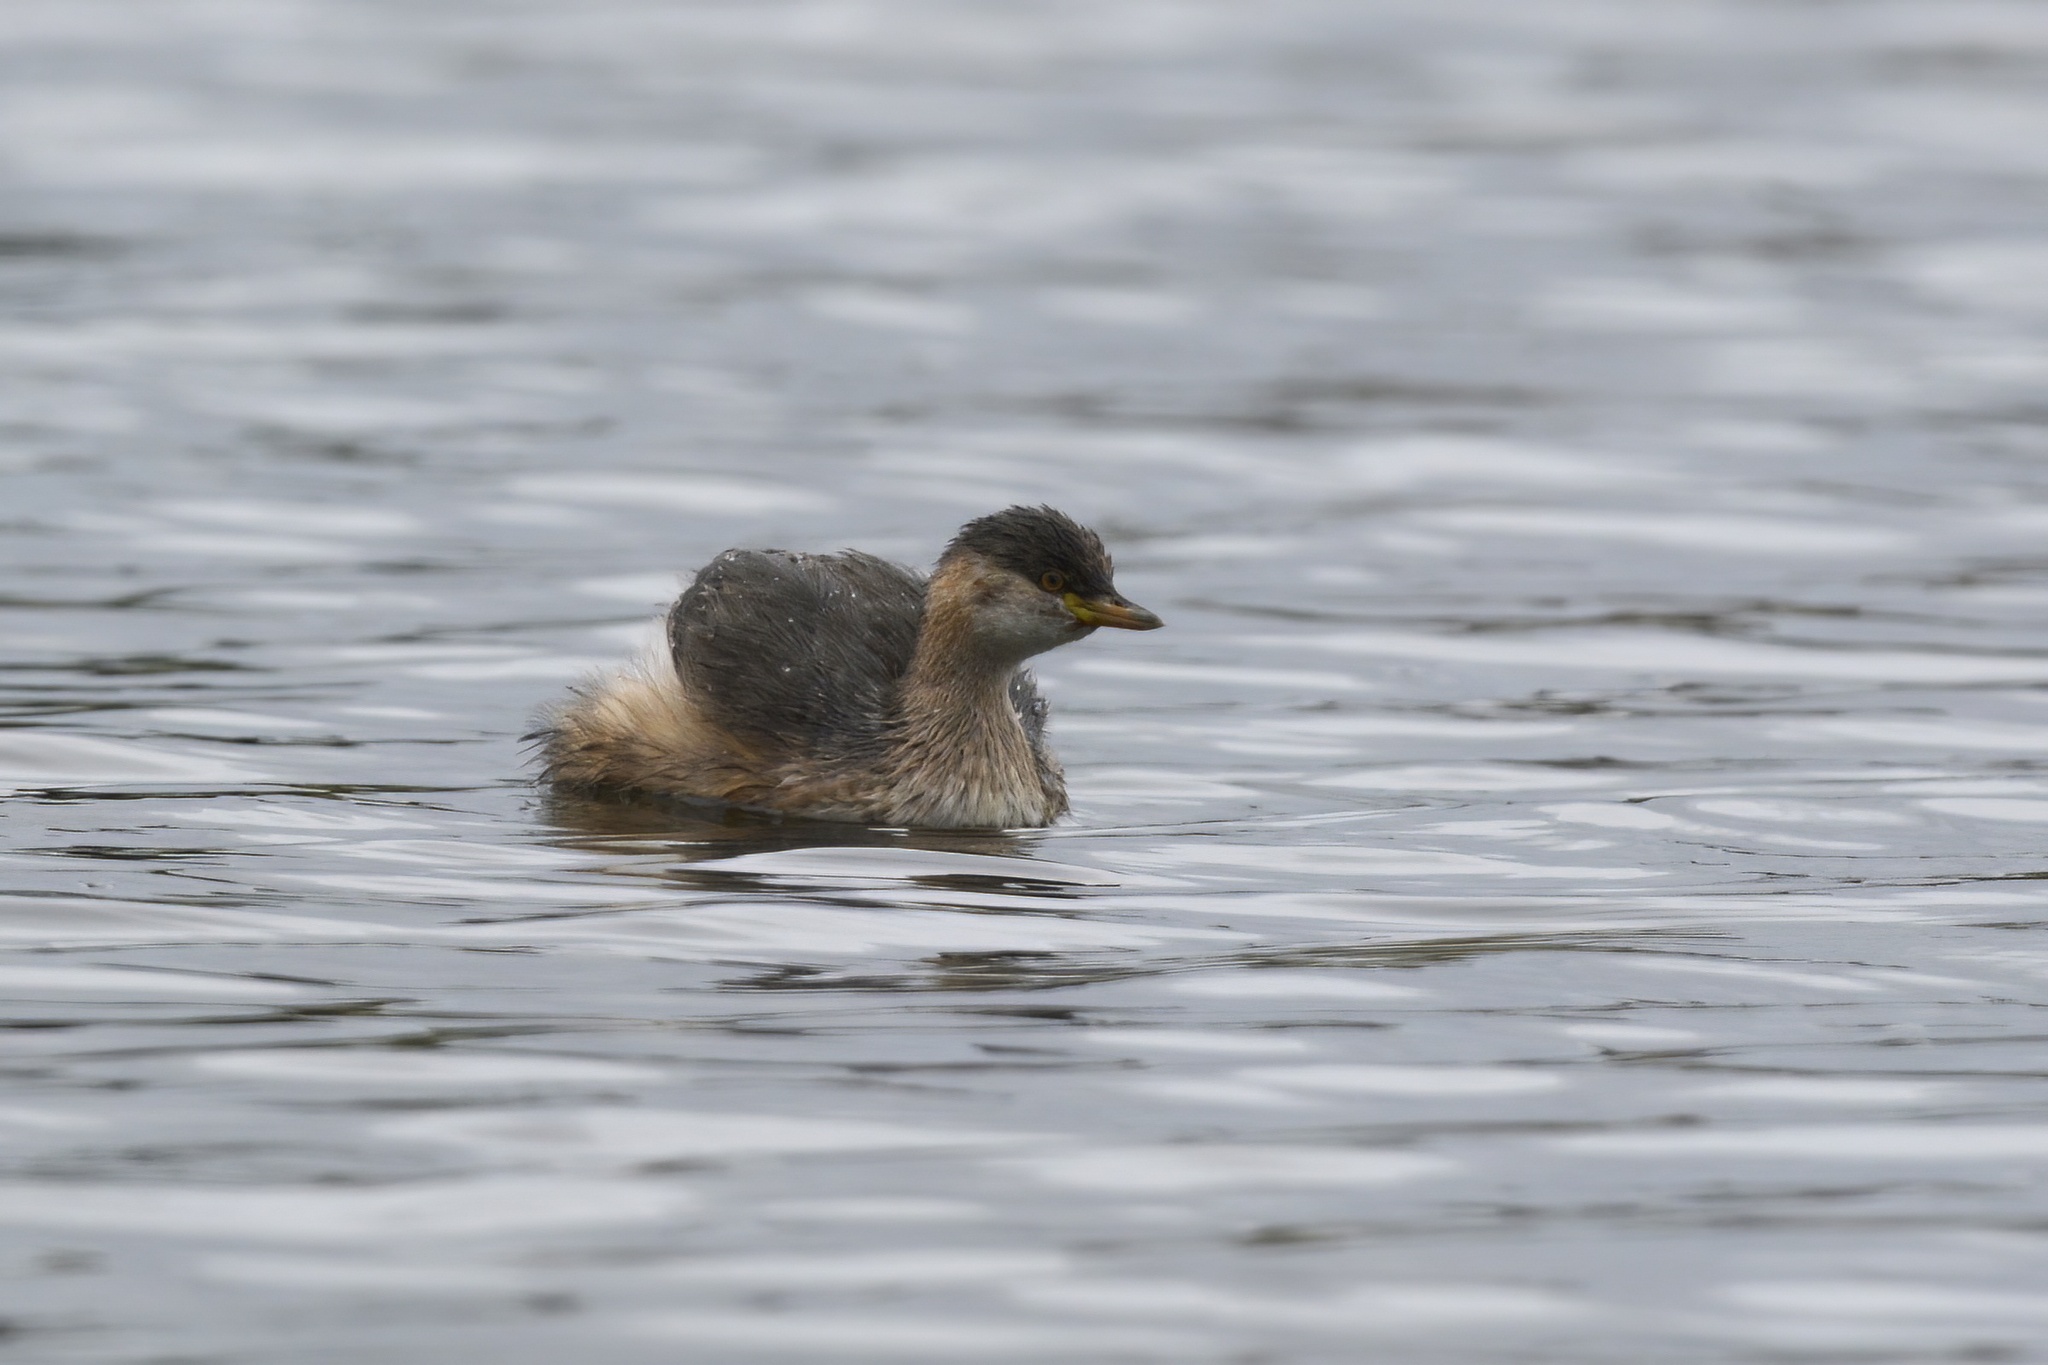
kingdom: Animalia
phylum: Chordata
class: Aves
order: Podicipediformes
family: Podicipedidae
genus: Tachybaptus
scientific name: Tachybaptus novaehollandiae
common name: Australasian grebe
